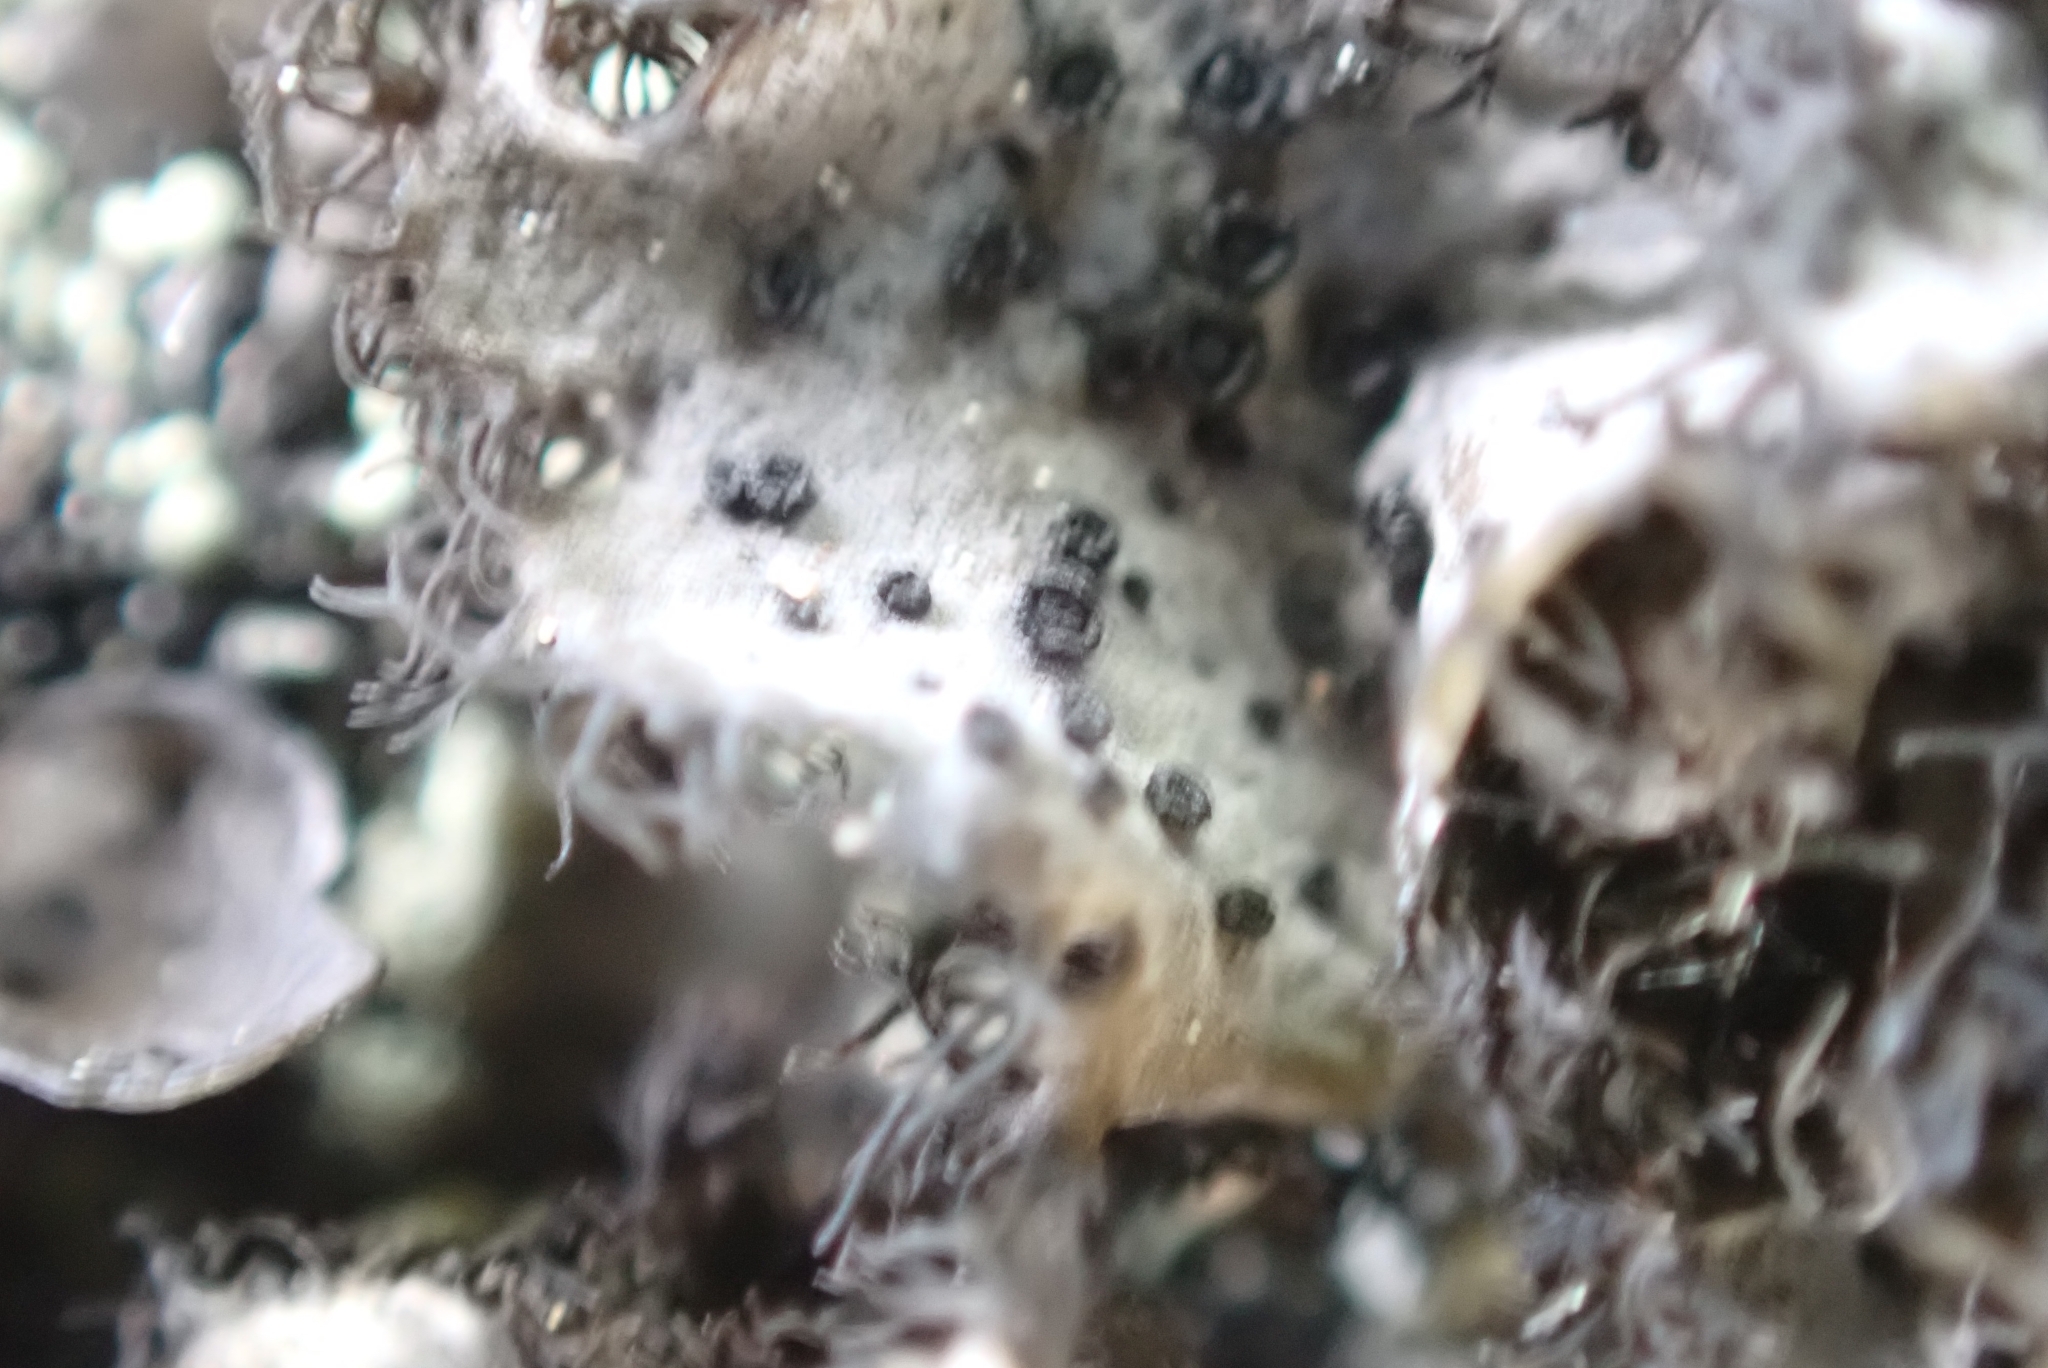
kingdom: Fungi
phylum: Ascomycota
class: Lecanoromycetes
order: Umbilicariales
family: Umbilicariaceae
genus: Umbilicaria
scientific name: Umbilicaria cylindrica
